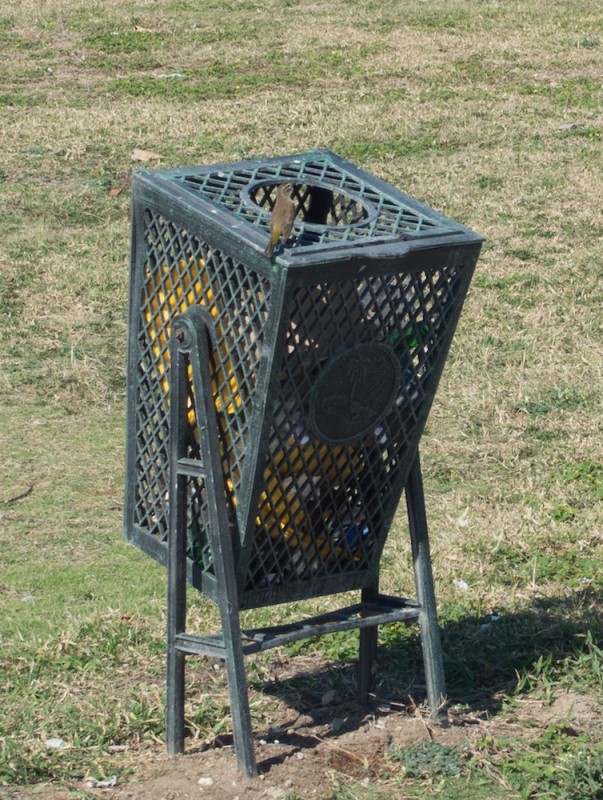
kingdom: Animalia
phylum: Chordata
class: Aves
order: Passeriformes
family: Parulidae
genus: Setophaga
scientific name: Setophaga palmarum
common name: Palm warbler
